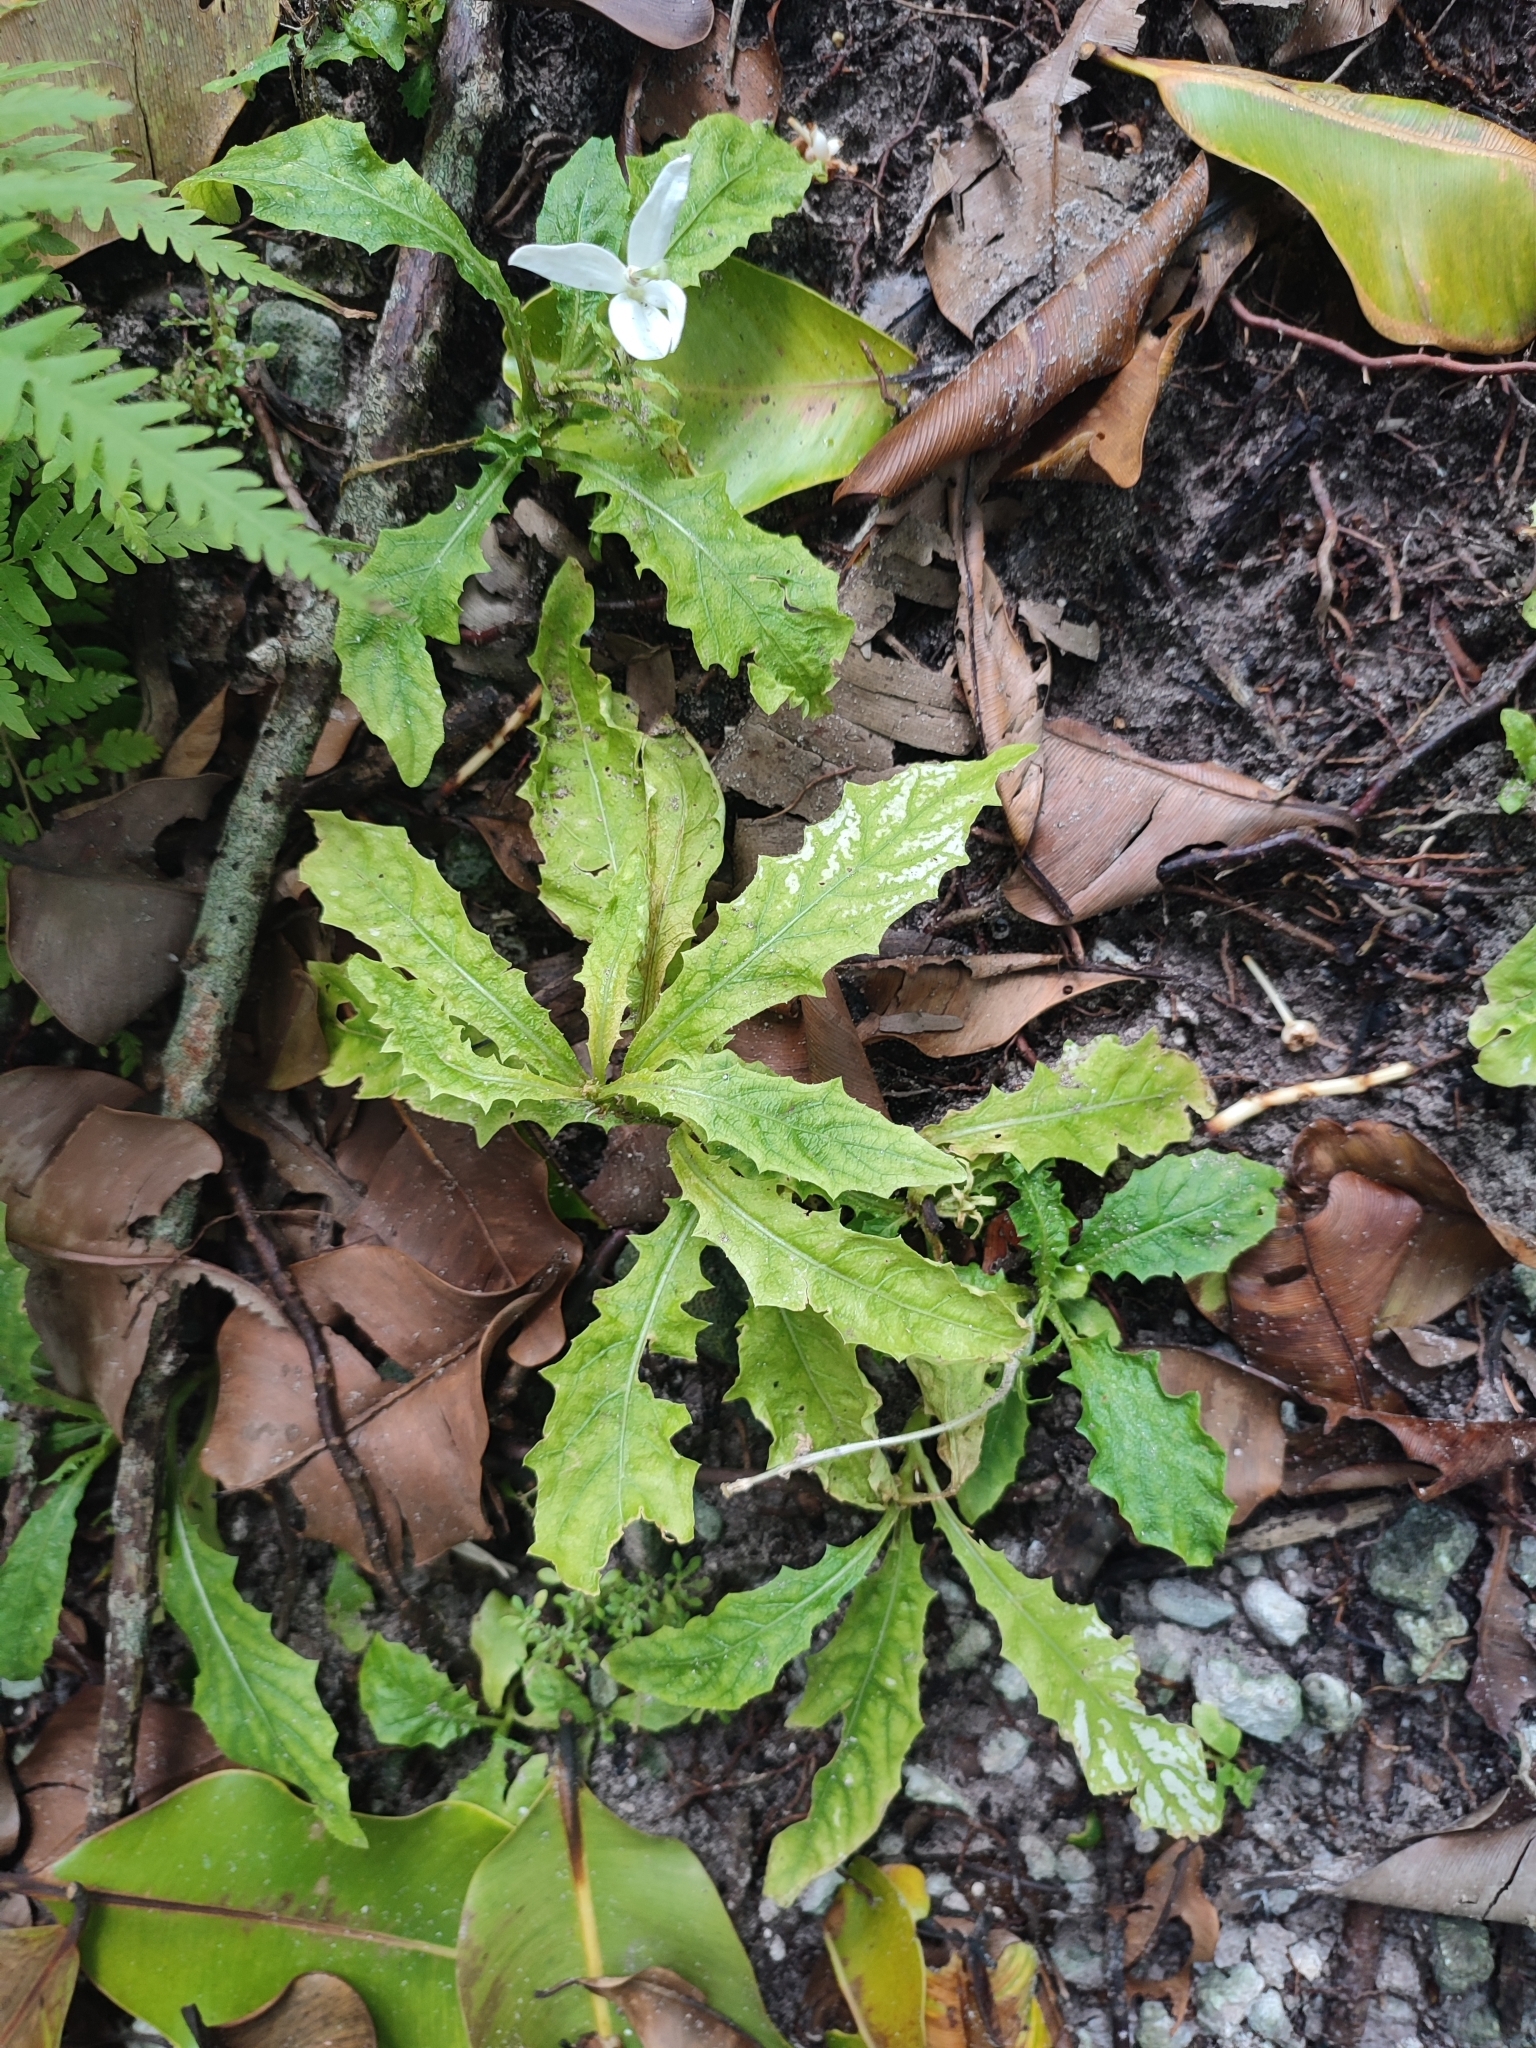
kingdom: Plantae
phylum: Tracheophyta
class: Magnoliopsida
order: Asterales
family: Campanulaceae
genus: Hippobroma
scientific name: Hippobroma longiflora
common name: Madamfate
